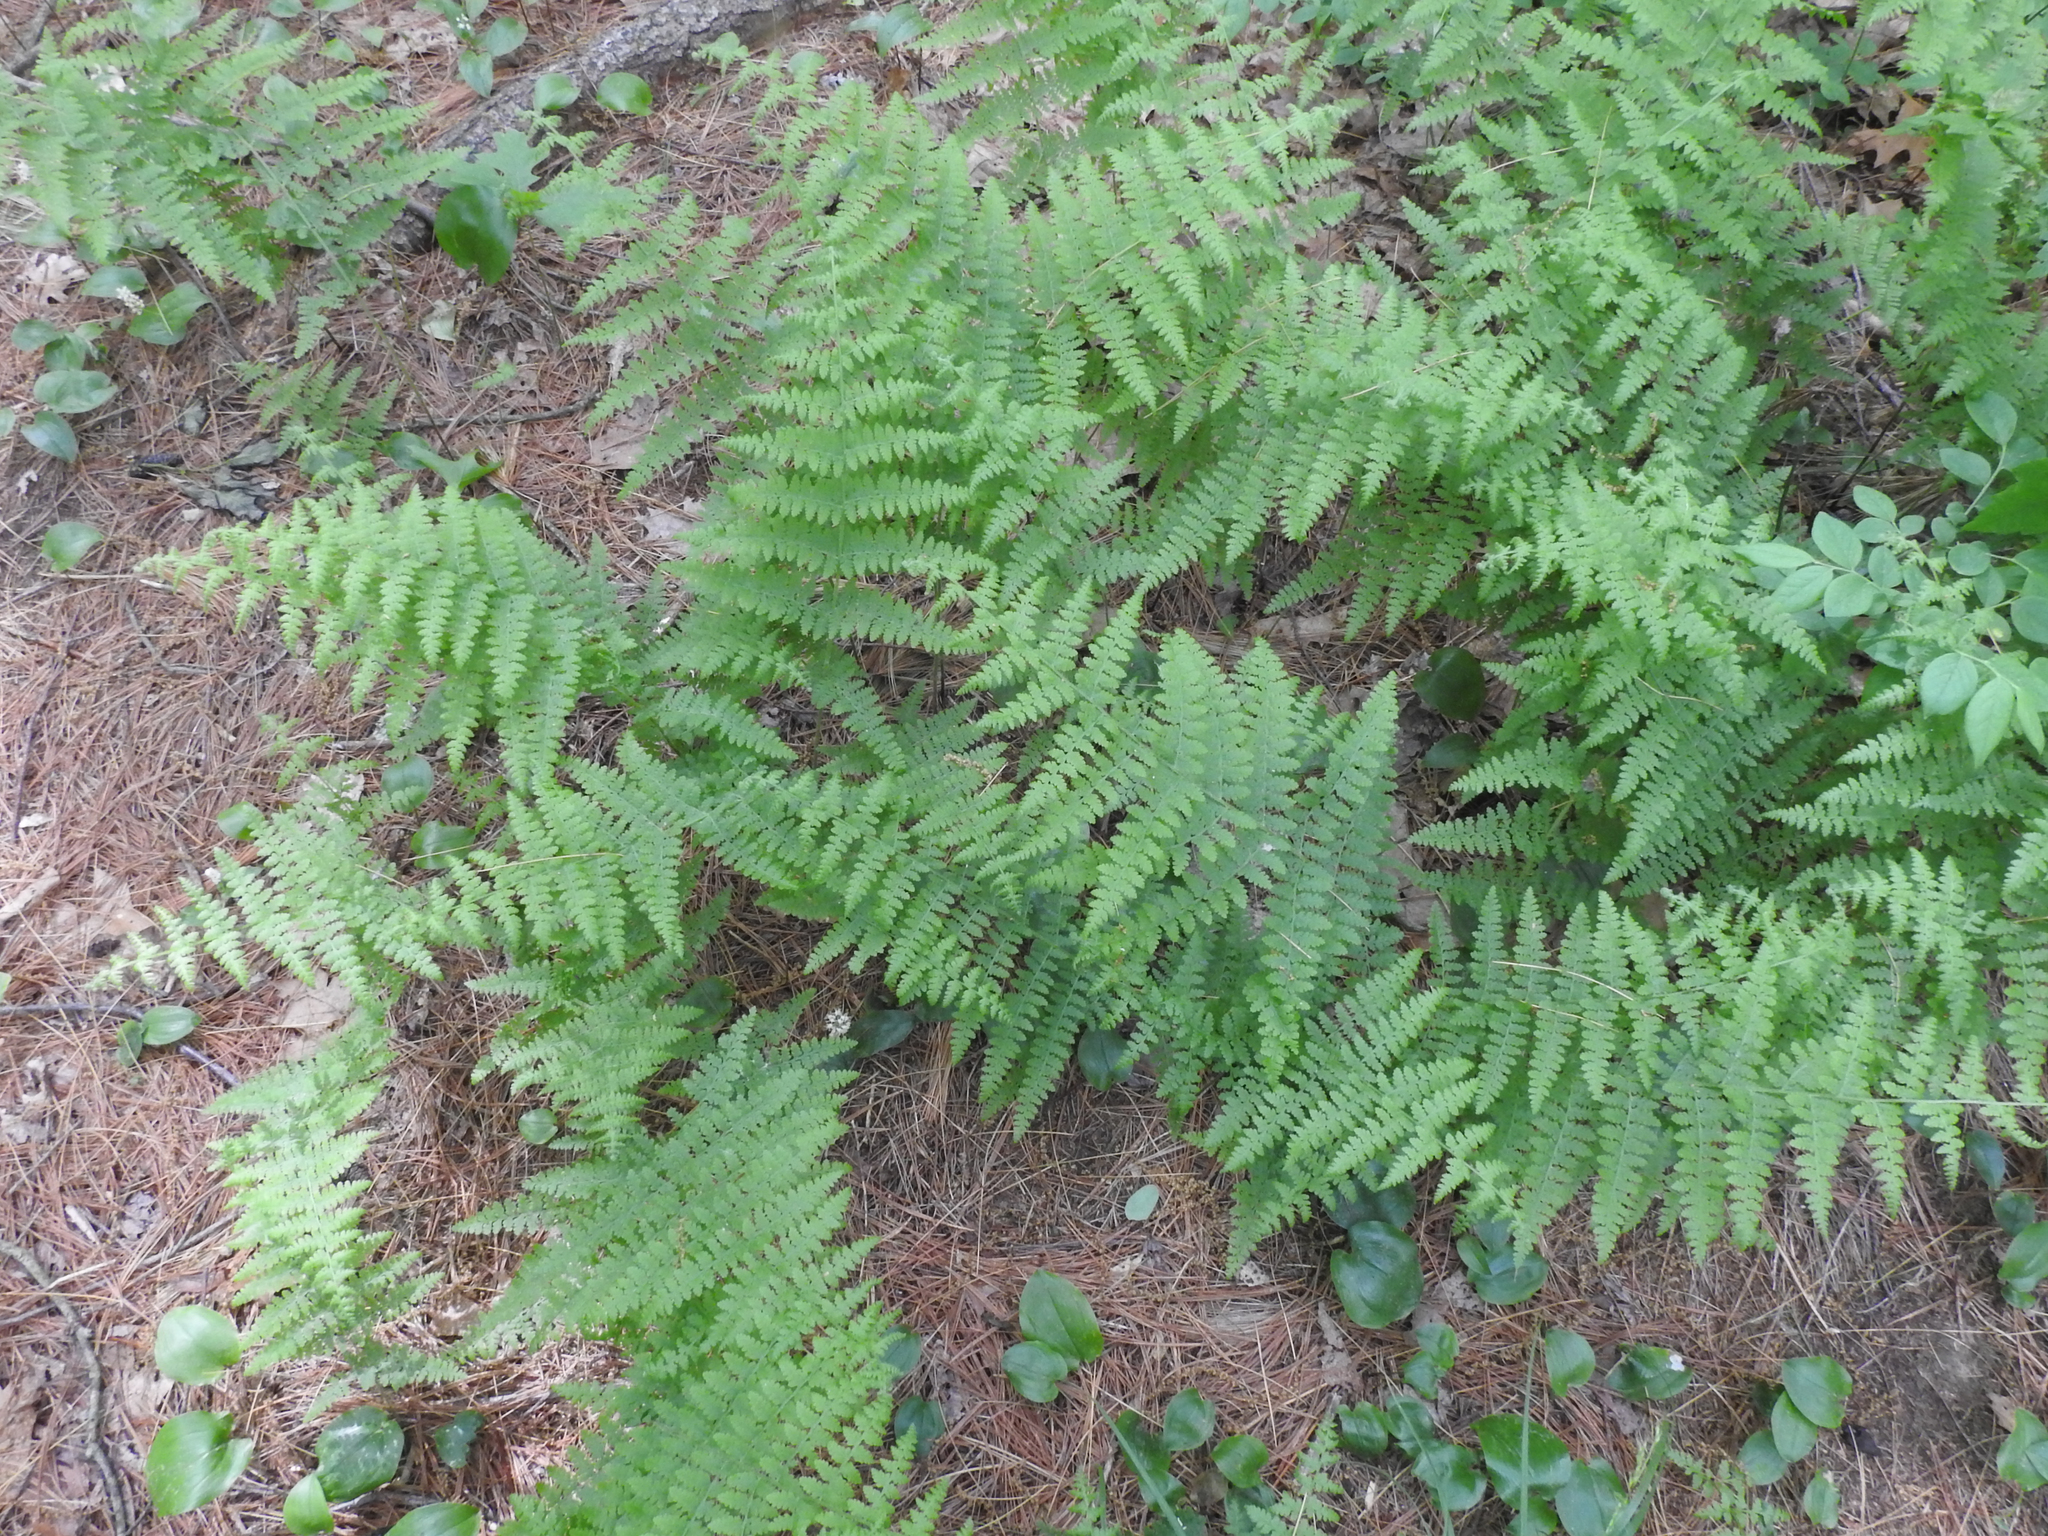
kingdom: Plantae
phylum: Tracheophyta
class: Polypodiopsida
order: Polypodiales
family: Dennstaedtiaceae
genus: Sitobolium
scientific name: Sitobolium punctilobum
